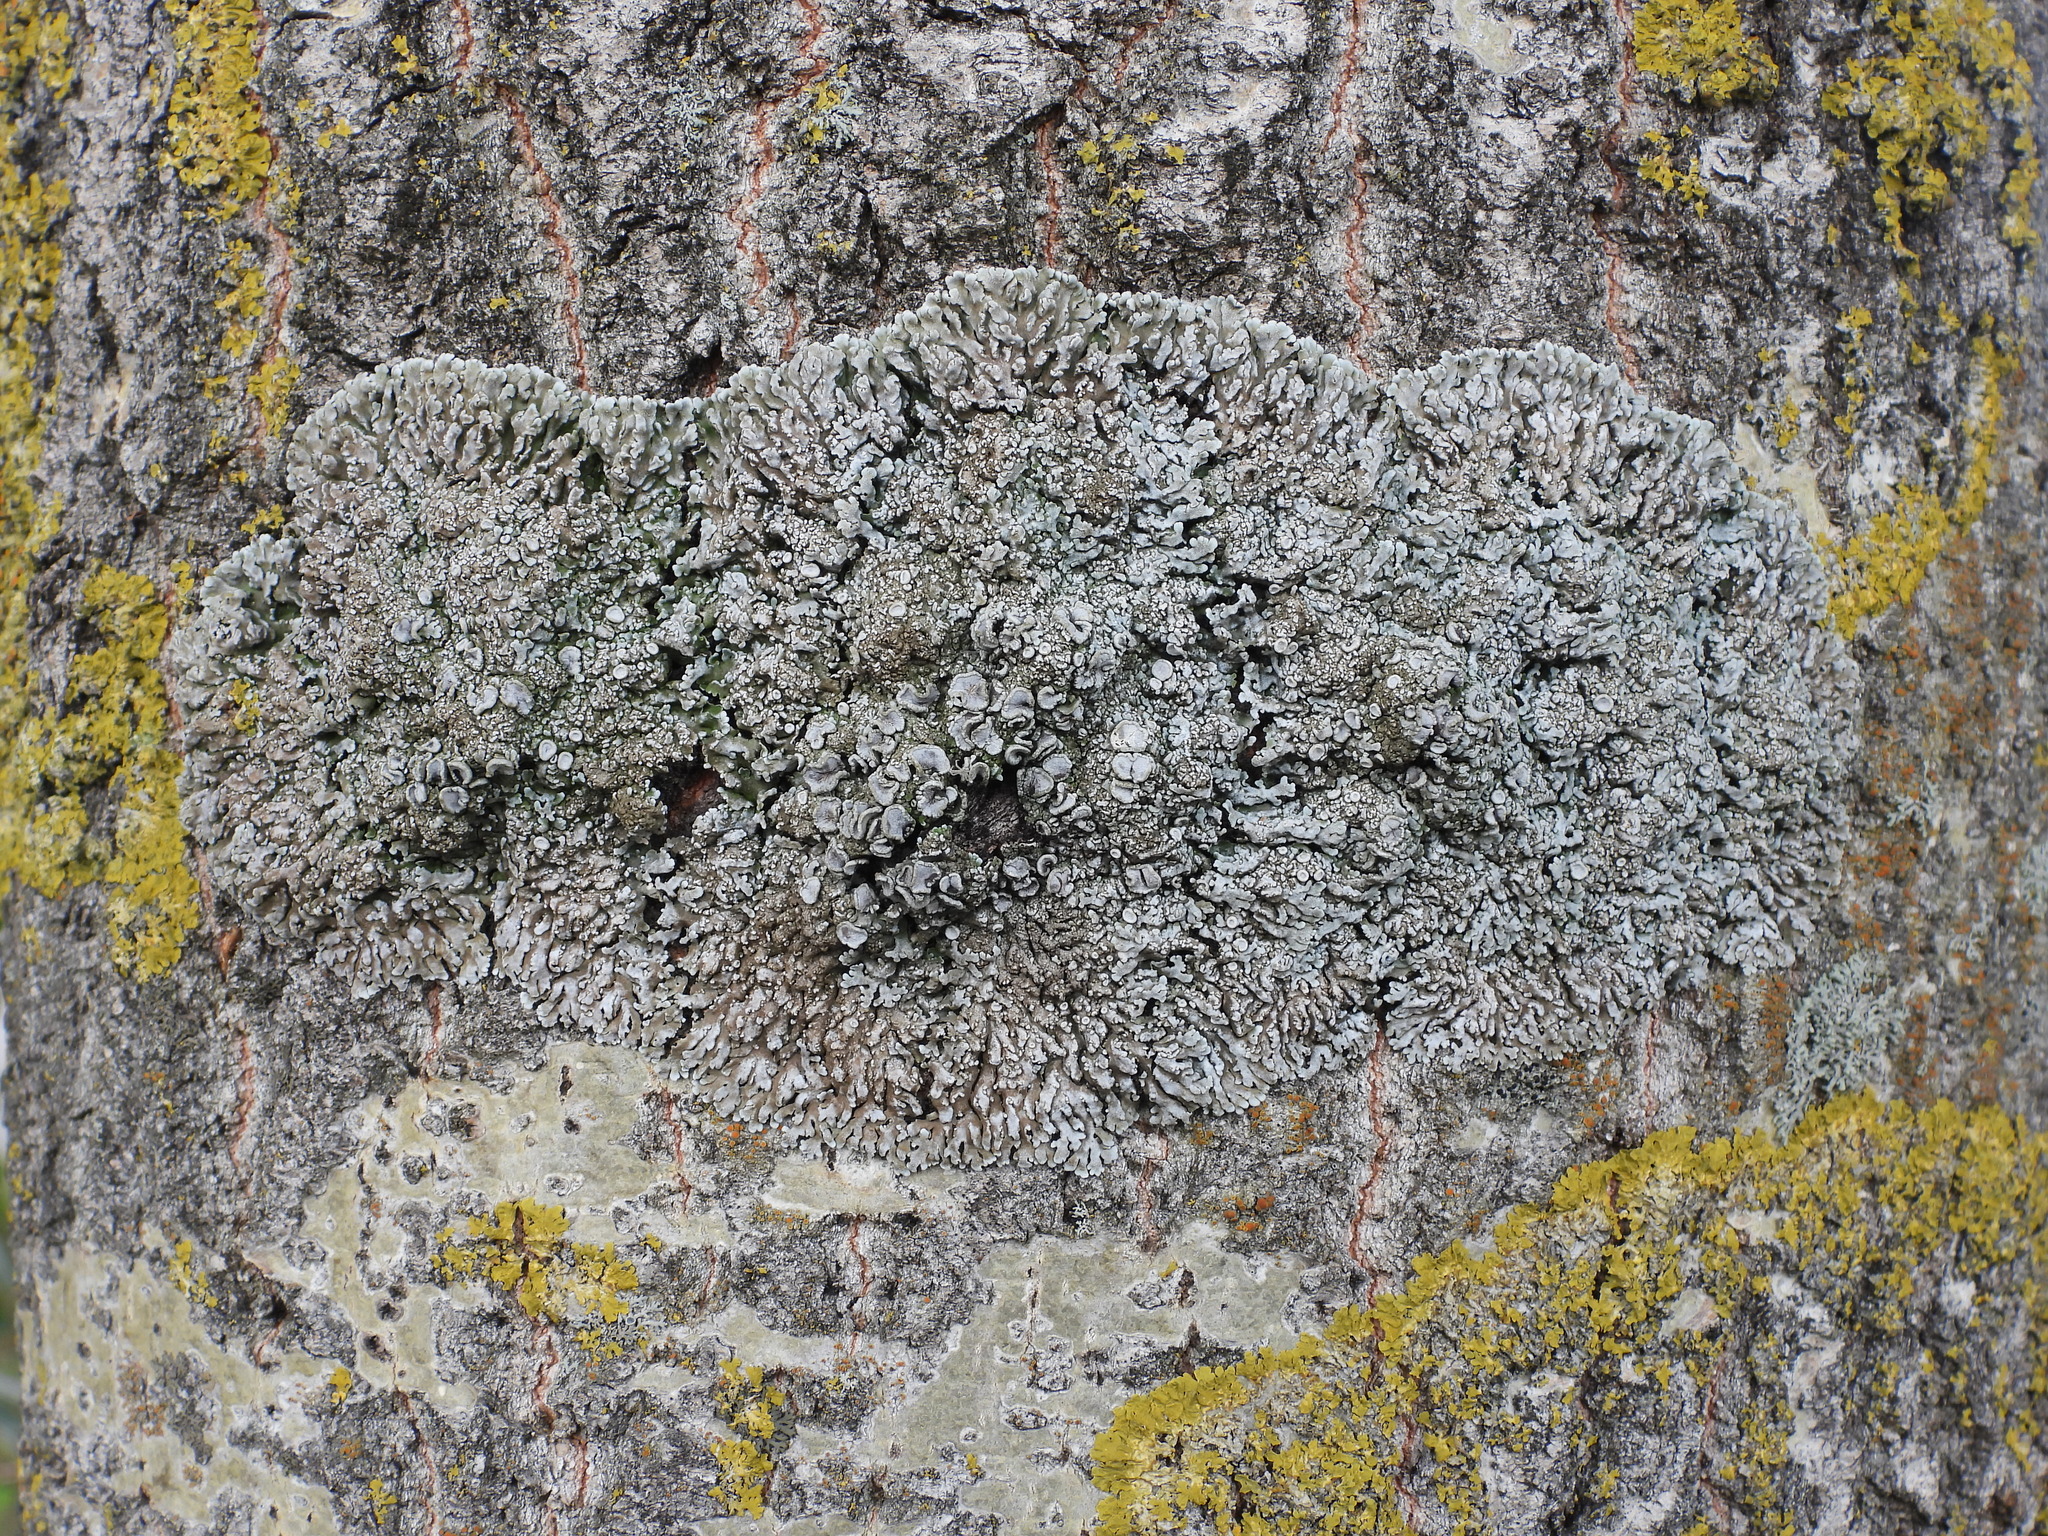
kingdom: Fungi
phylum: Ascomycota
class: Lecanoromycetes
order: Caliciales
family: Physciaceae
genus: Physconia
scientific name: Physconia distorta
